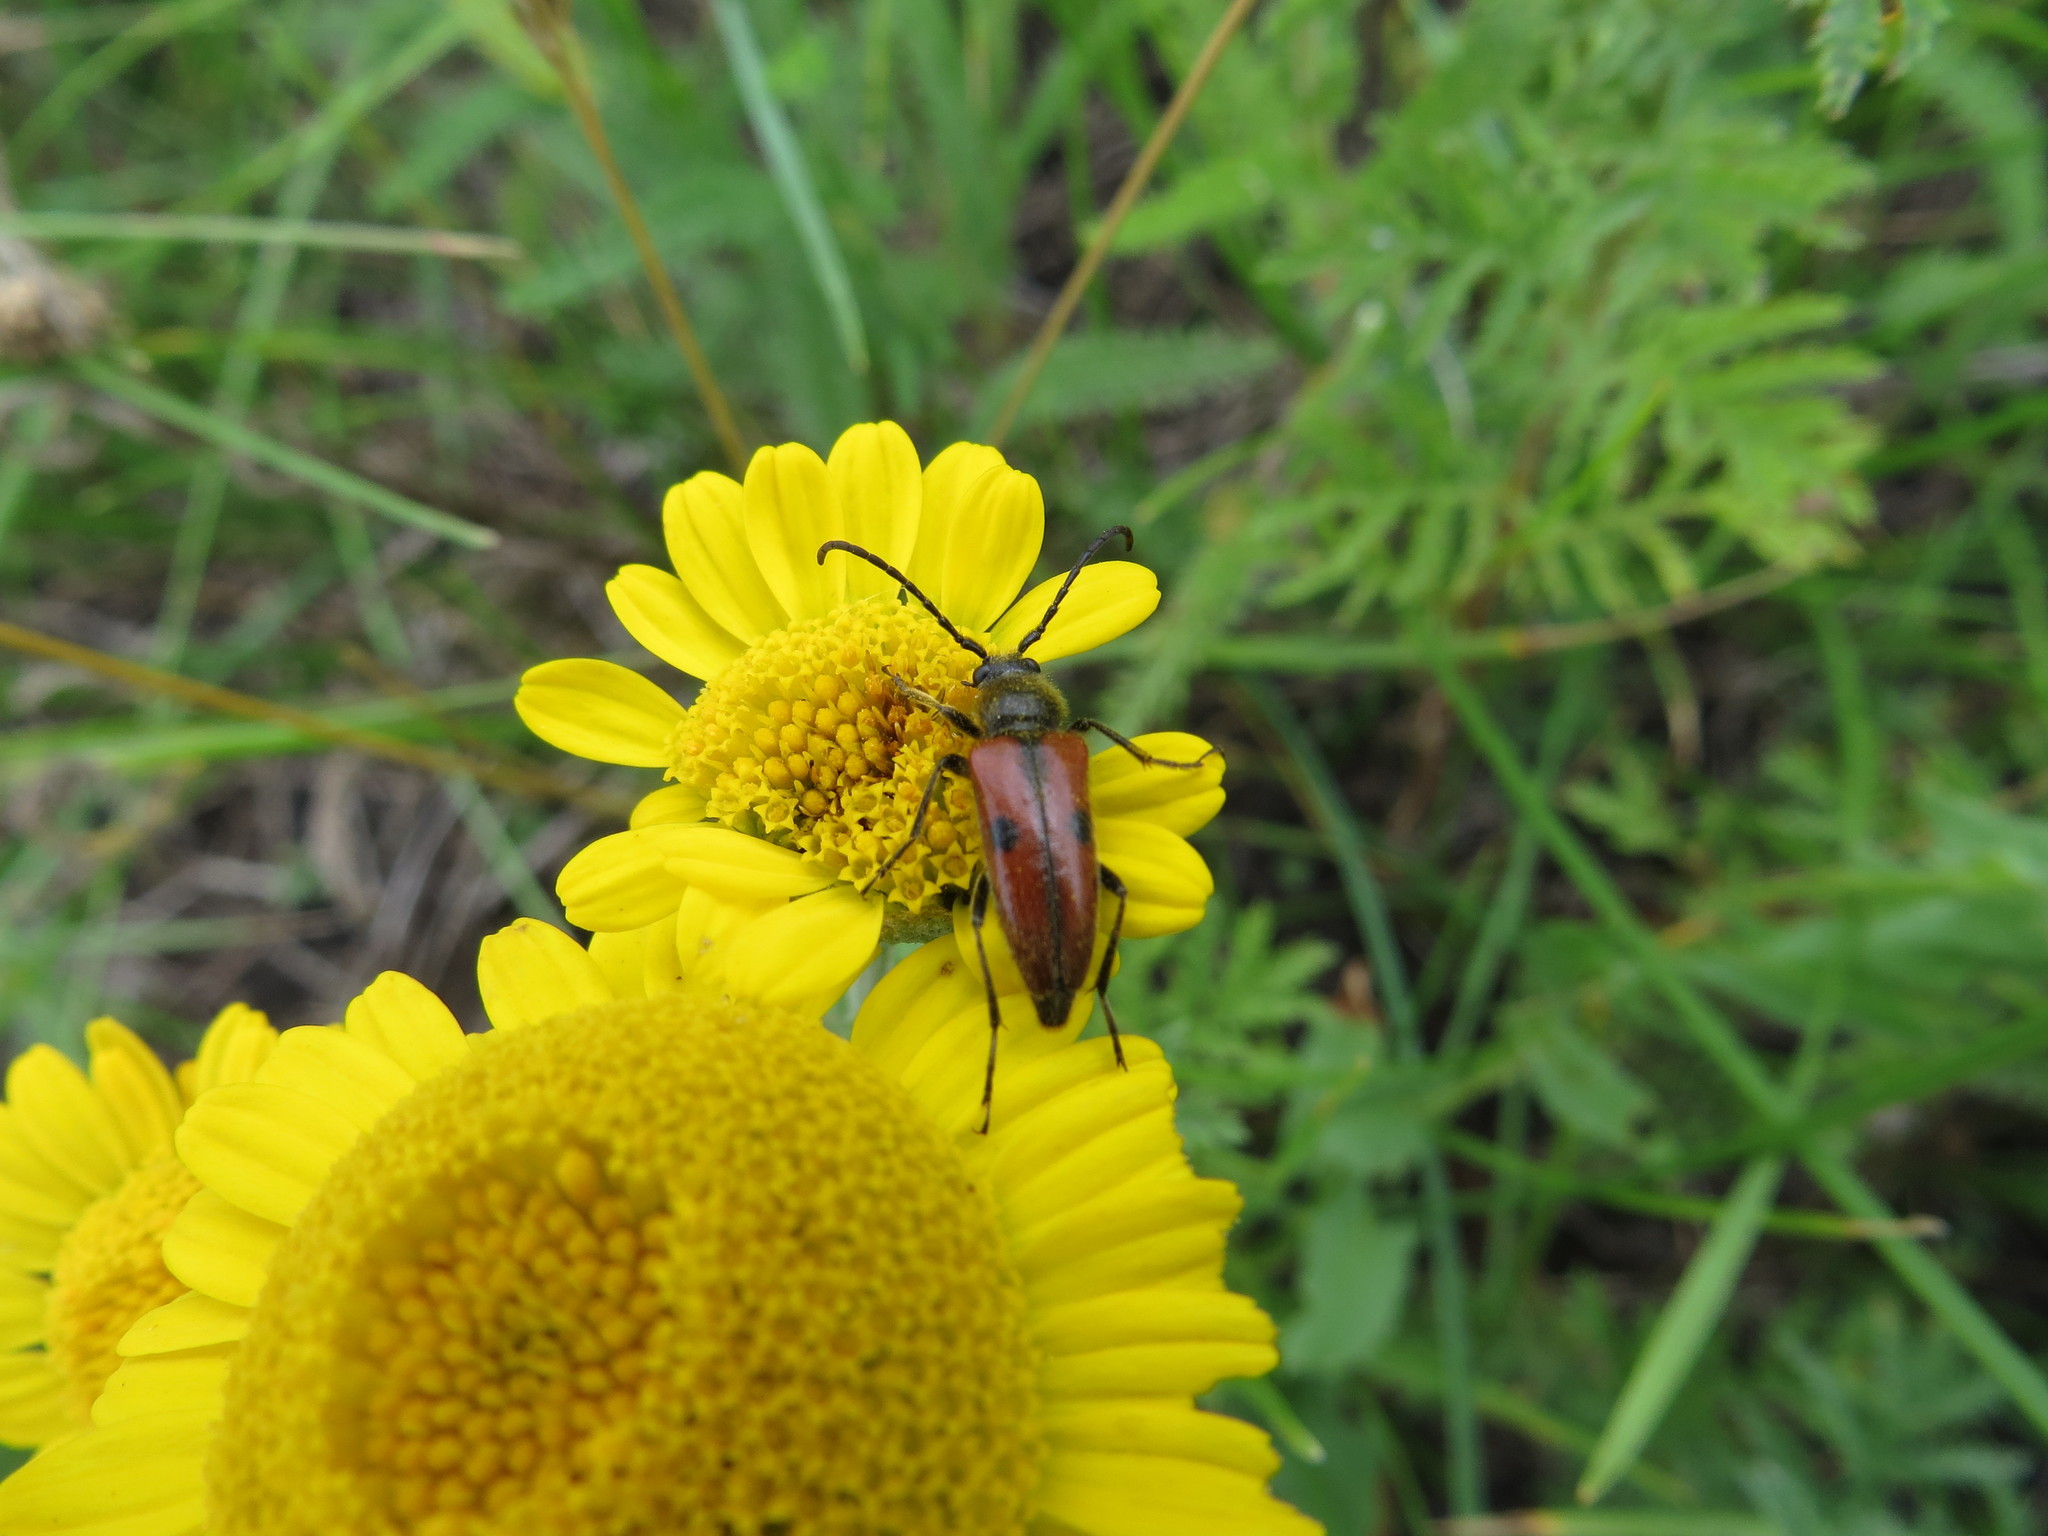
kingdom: Animalia
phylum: Arthropoda
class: Insecta
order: Coleoptera
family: Cerambycidae
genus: Vadonia
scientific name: Vadonia unipunctata
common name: Long-horned beetle
